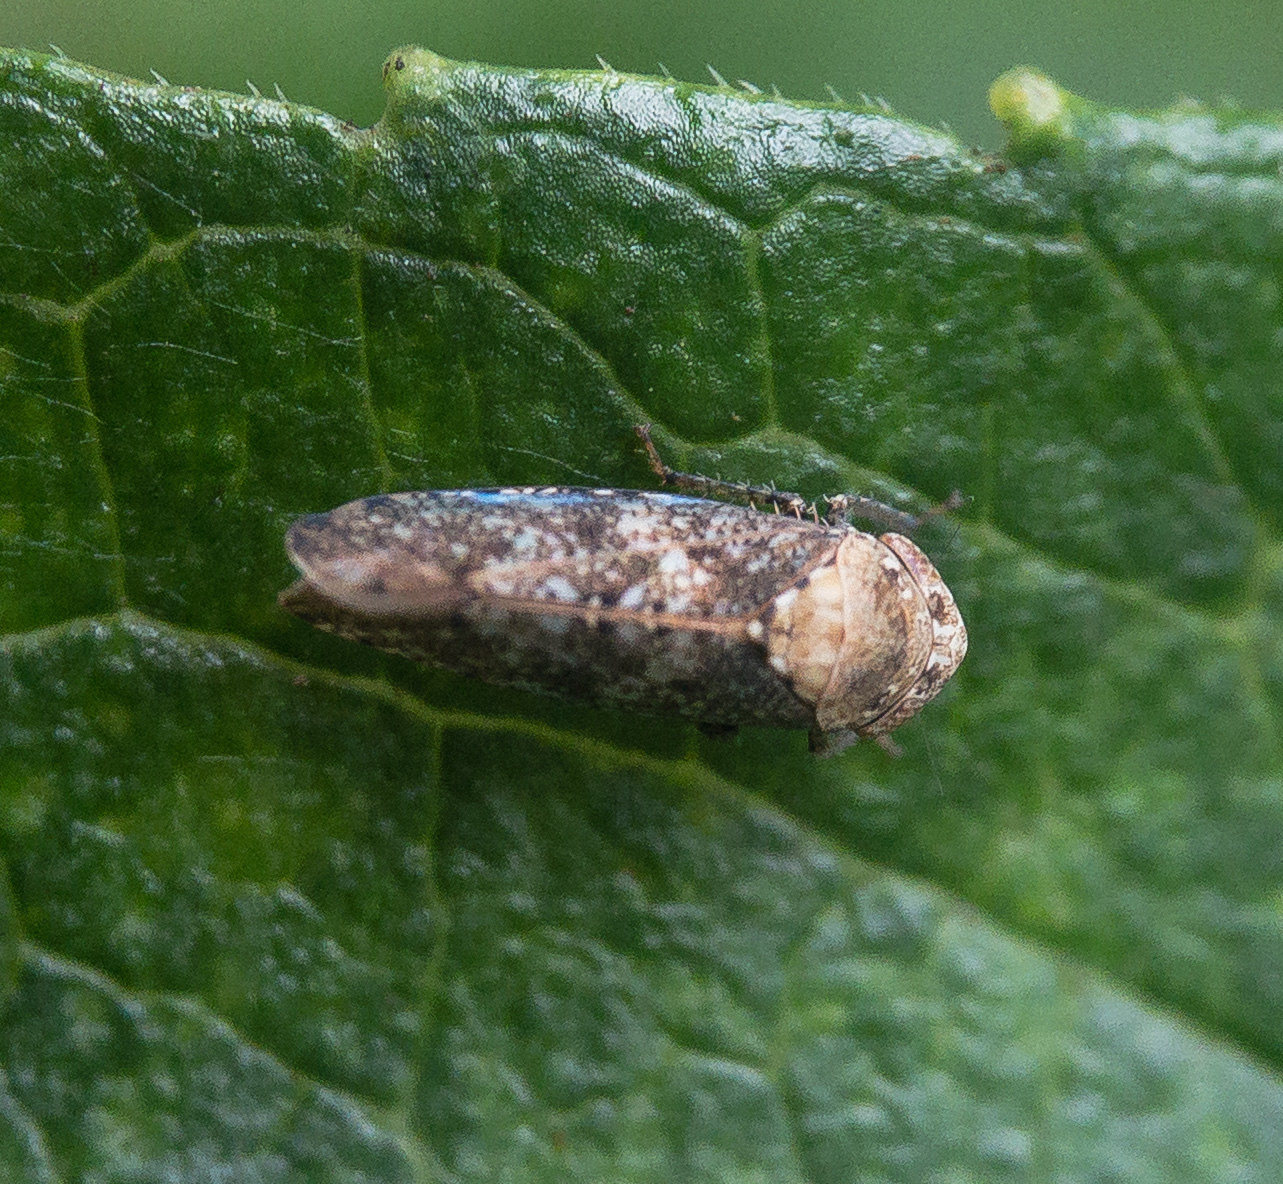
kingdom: Animalia
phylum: Arthropoda
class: Insecta
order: Hemiptera
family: Cicadellidae
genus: Paraphlepsius
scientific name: Paraphlepsius collitus
